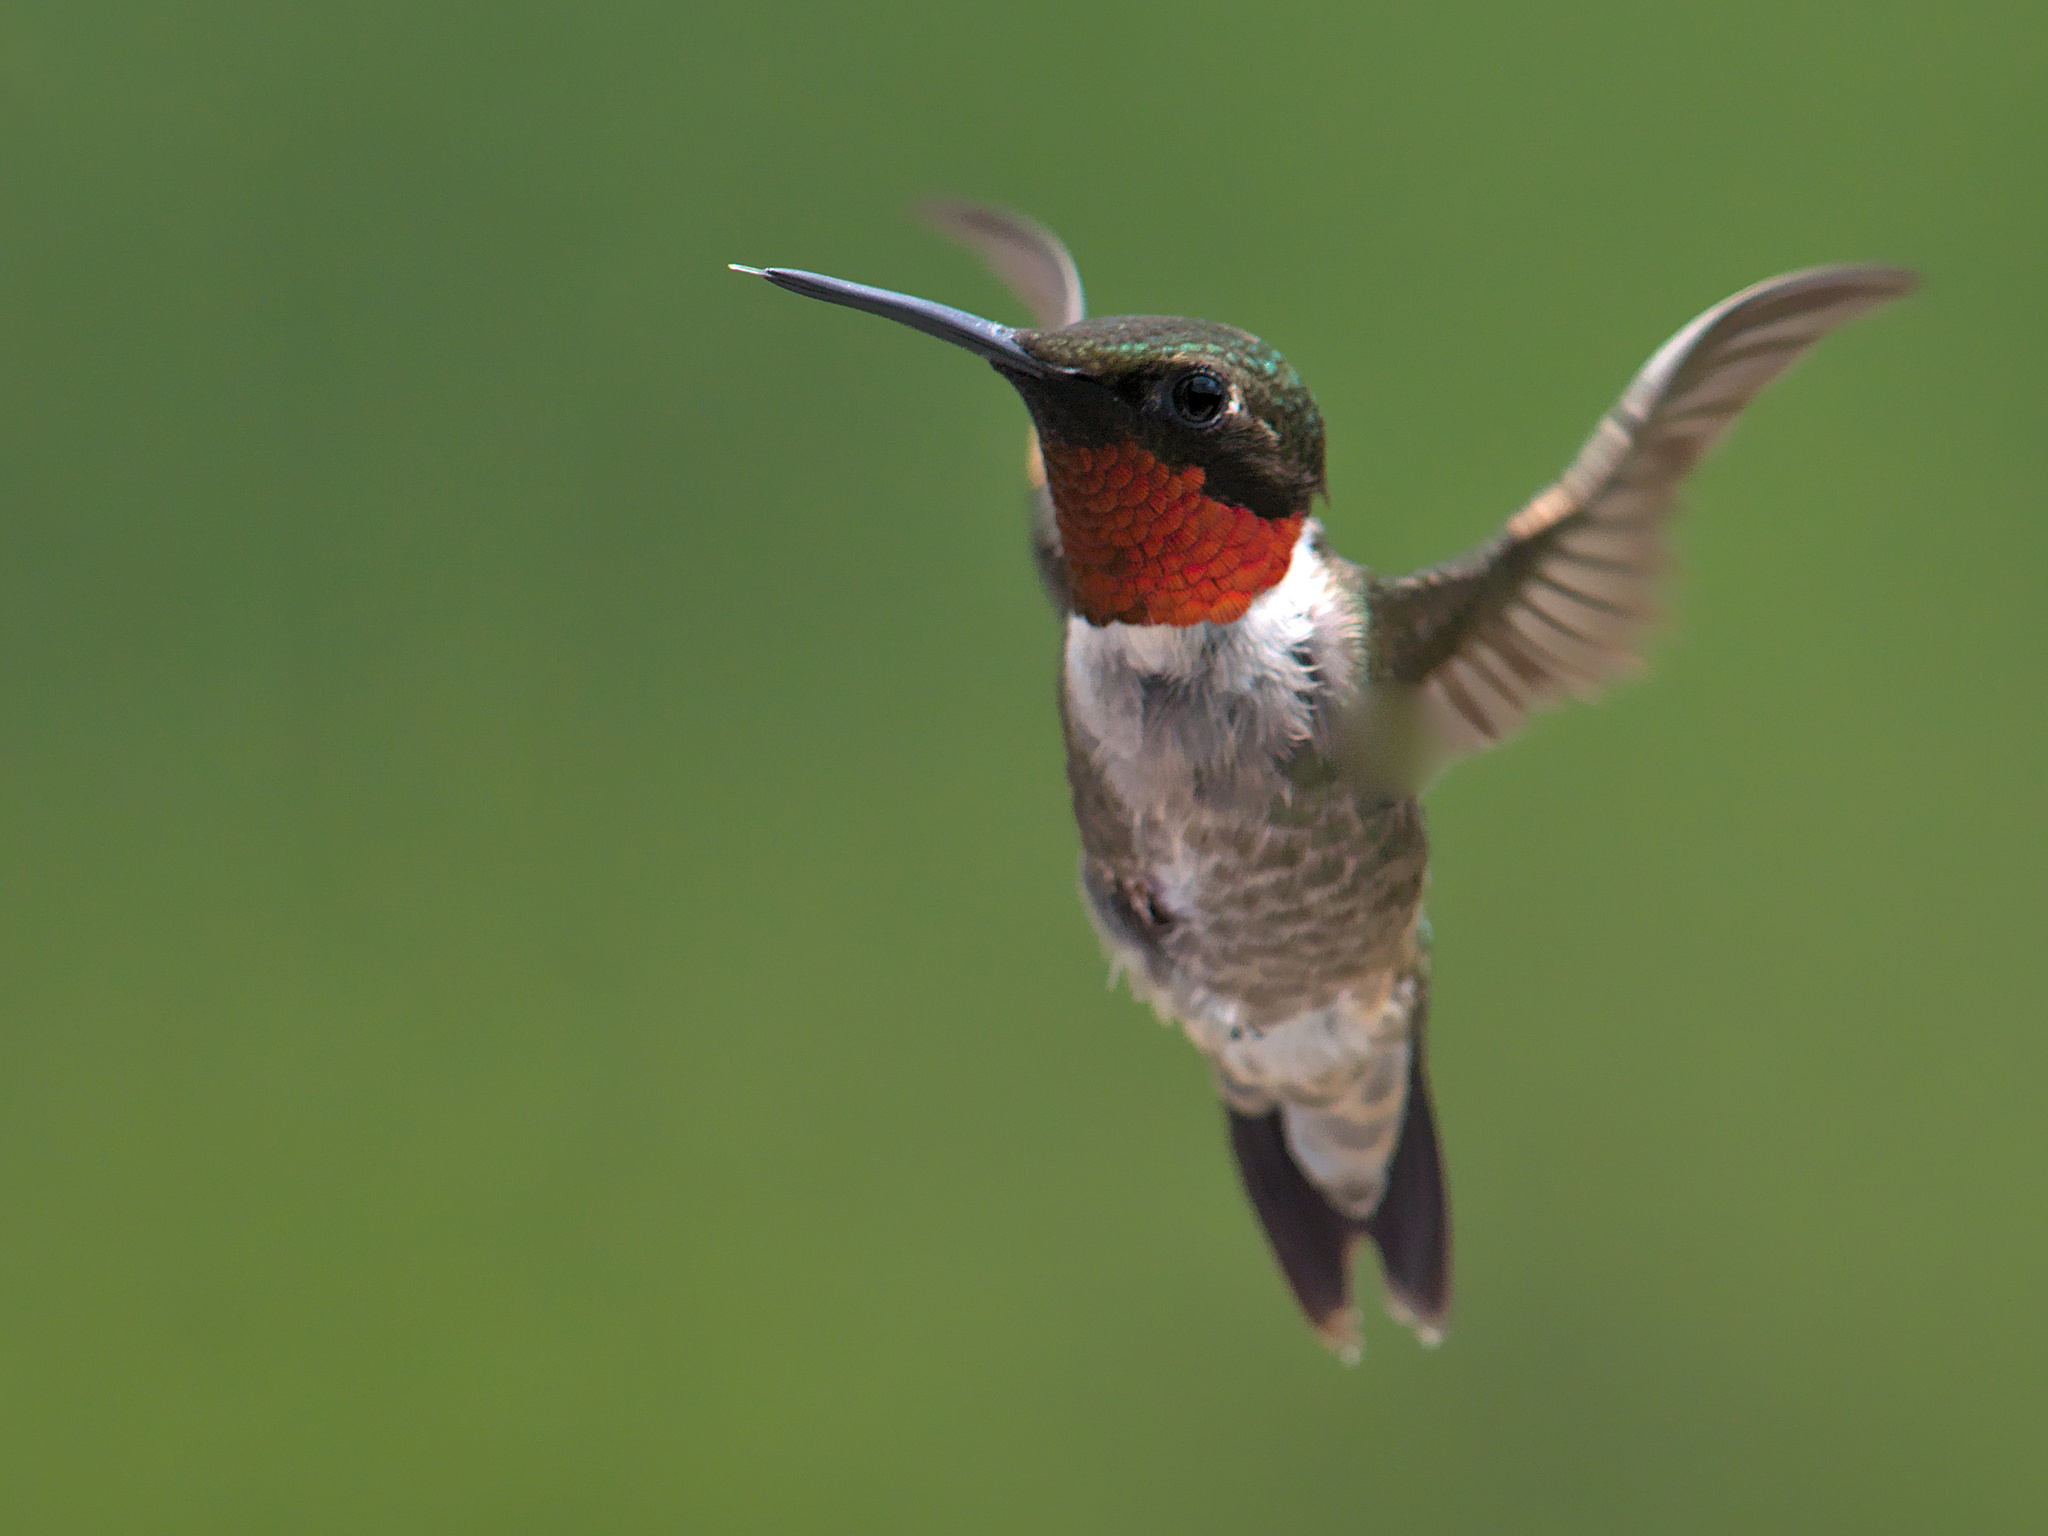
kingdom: Animalia
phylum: Chordata
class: Aves
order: Apodiformes
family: Trochilidae
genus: Archilochus
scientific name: Archilochus colubris
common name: Ruby-throated hummingbird
